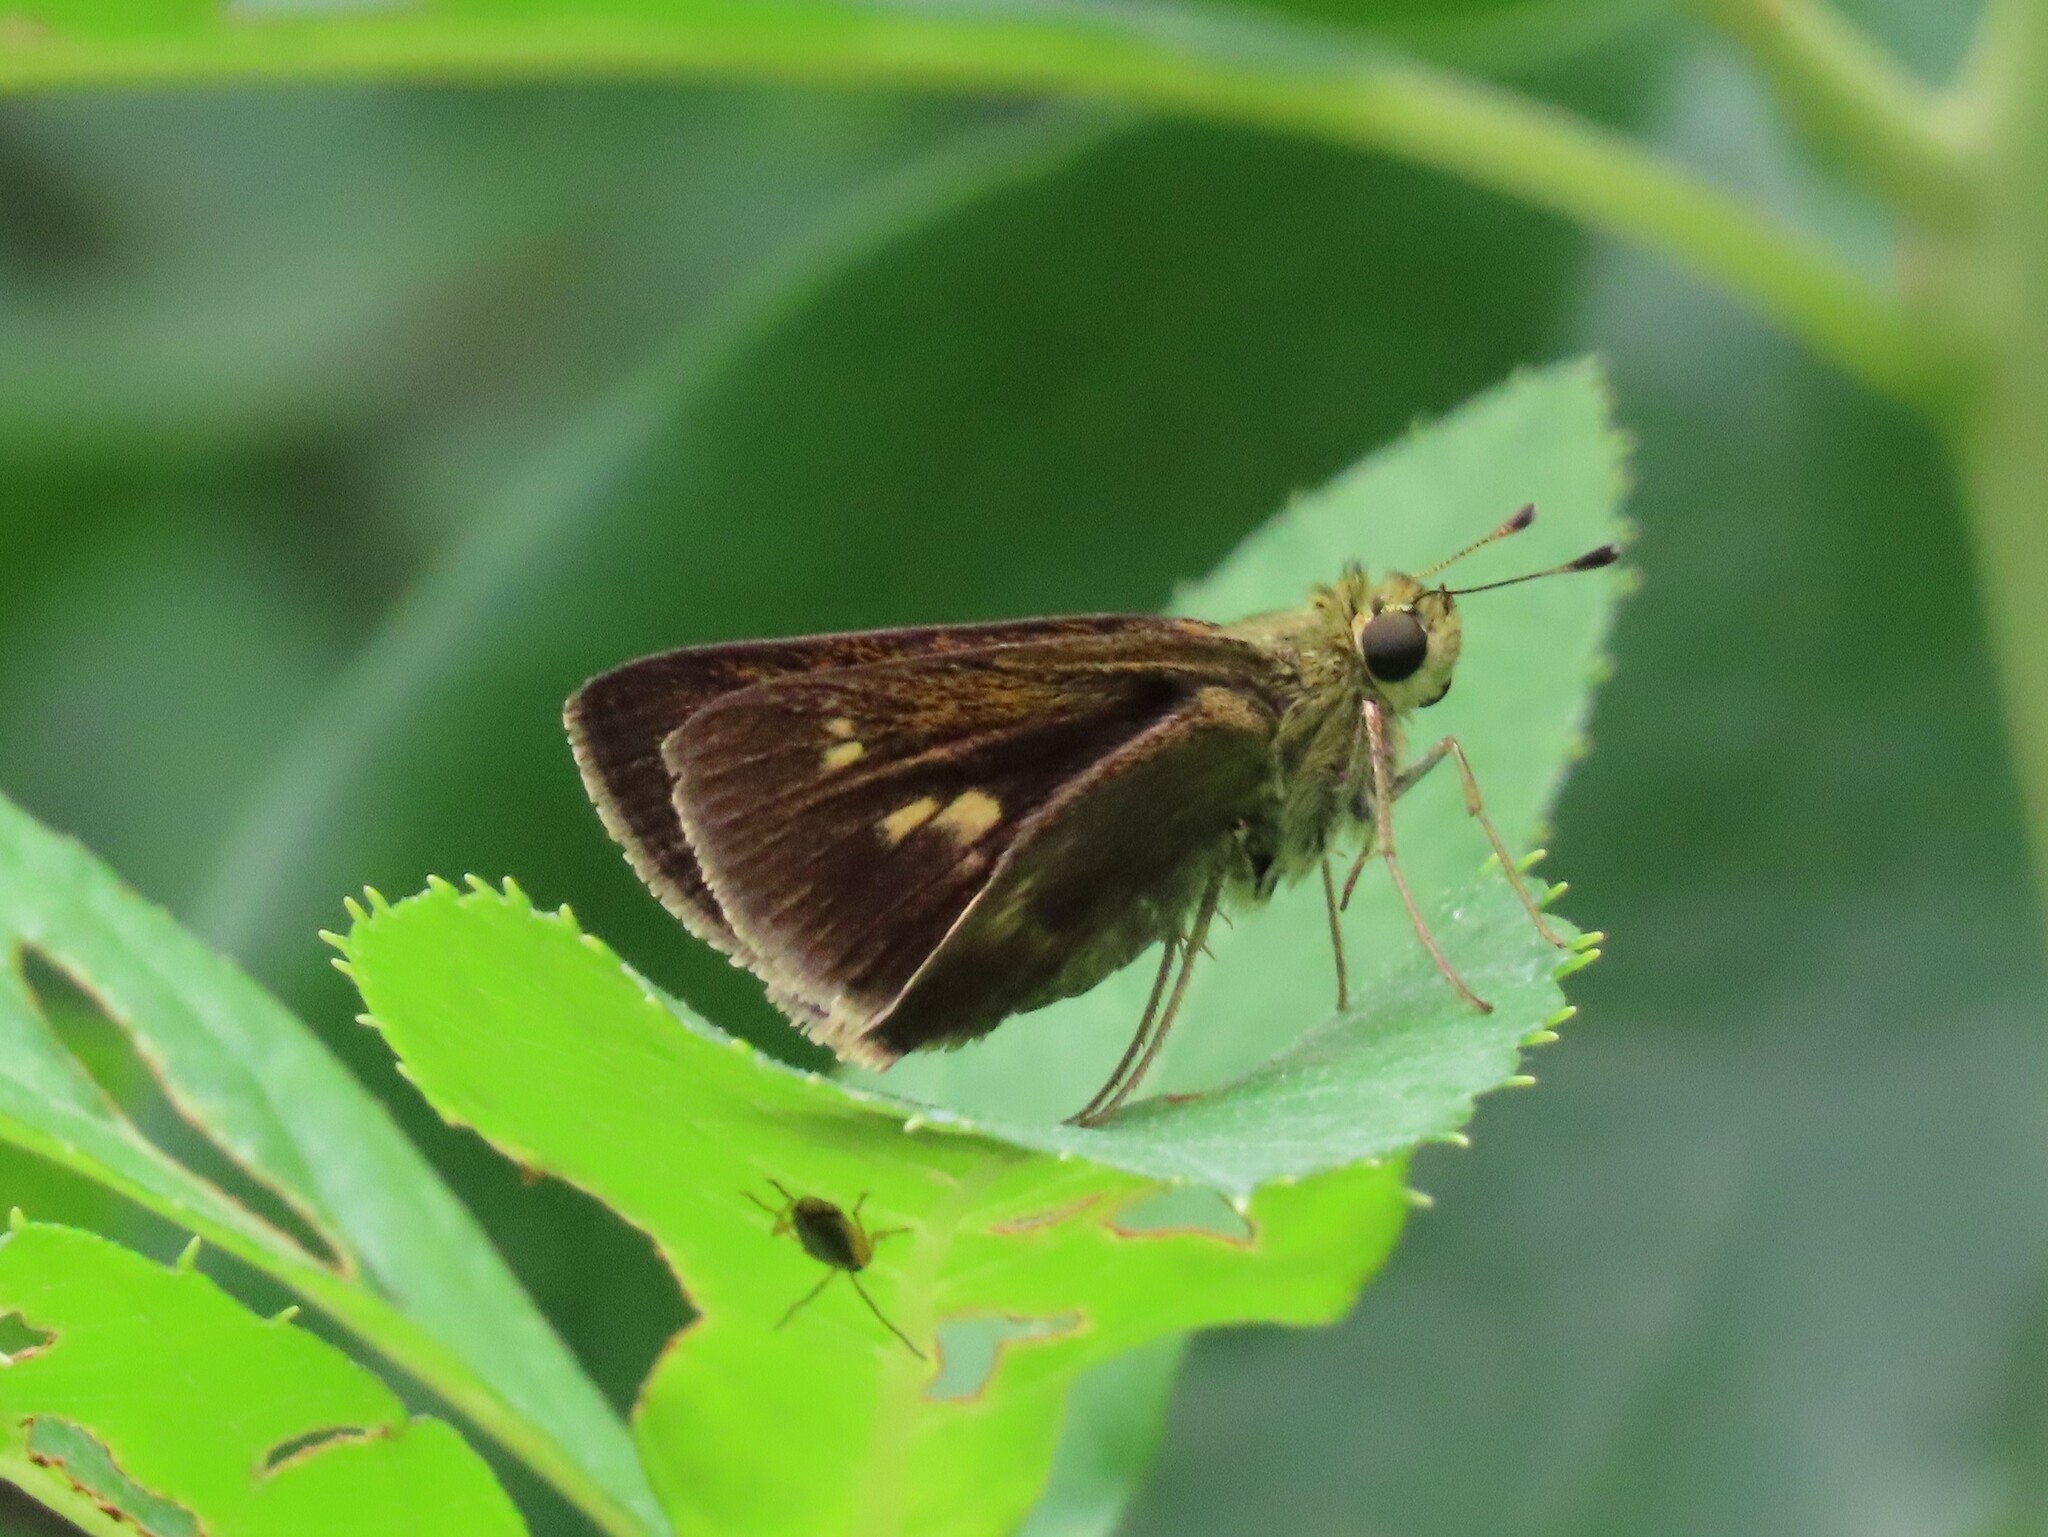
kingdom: Animalia
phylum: Arthropoda
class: Insecta
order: Lepidoptera
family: Hesperiidae
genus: Polites
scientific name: Polites egeremet
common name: Northern broken-dash
